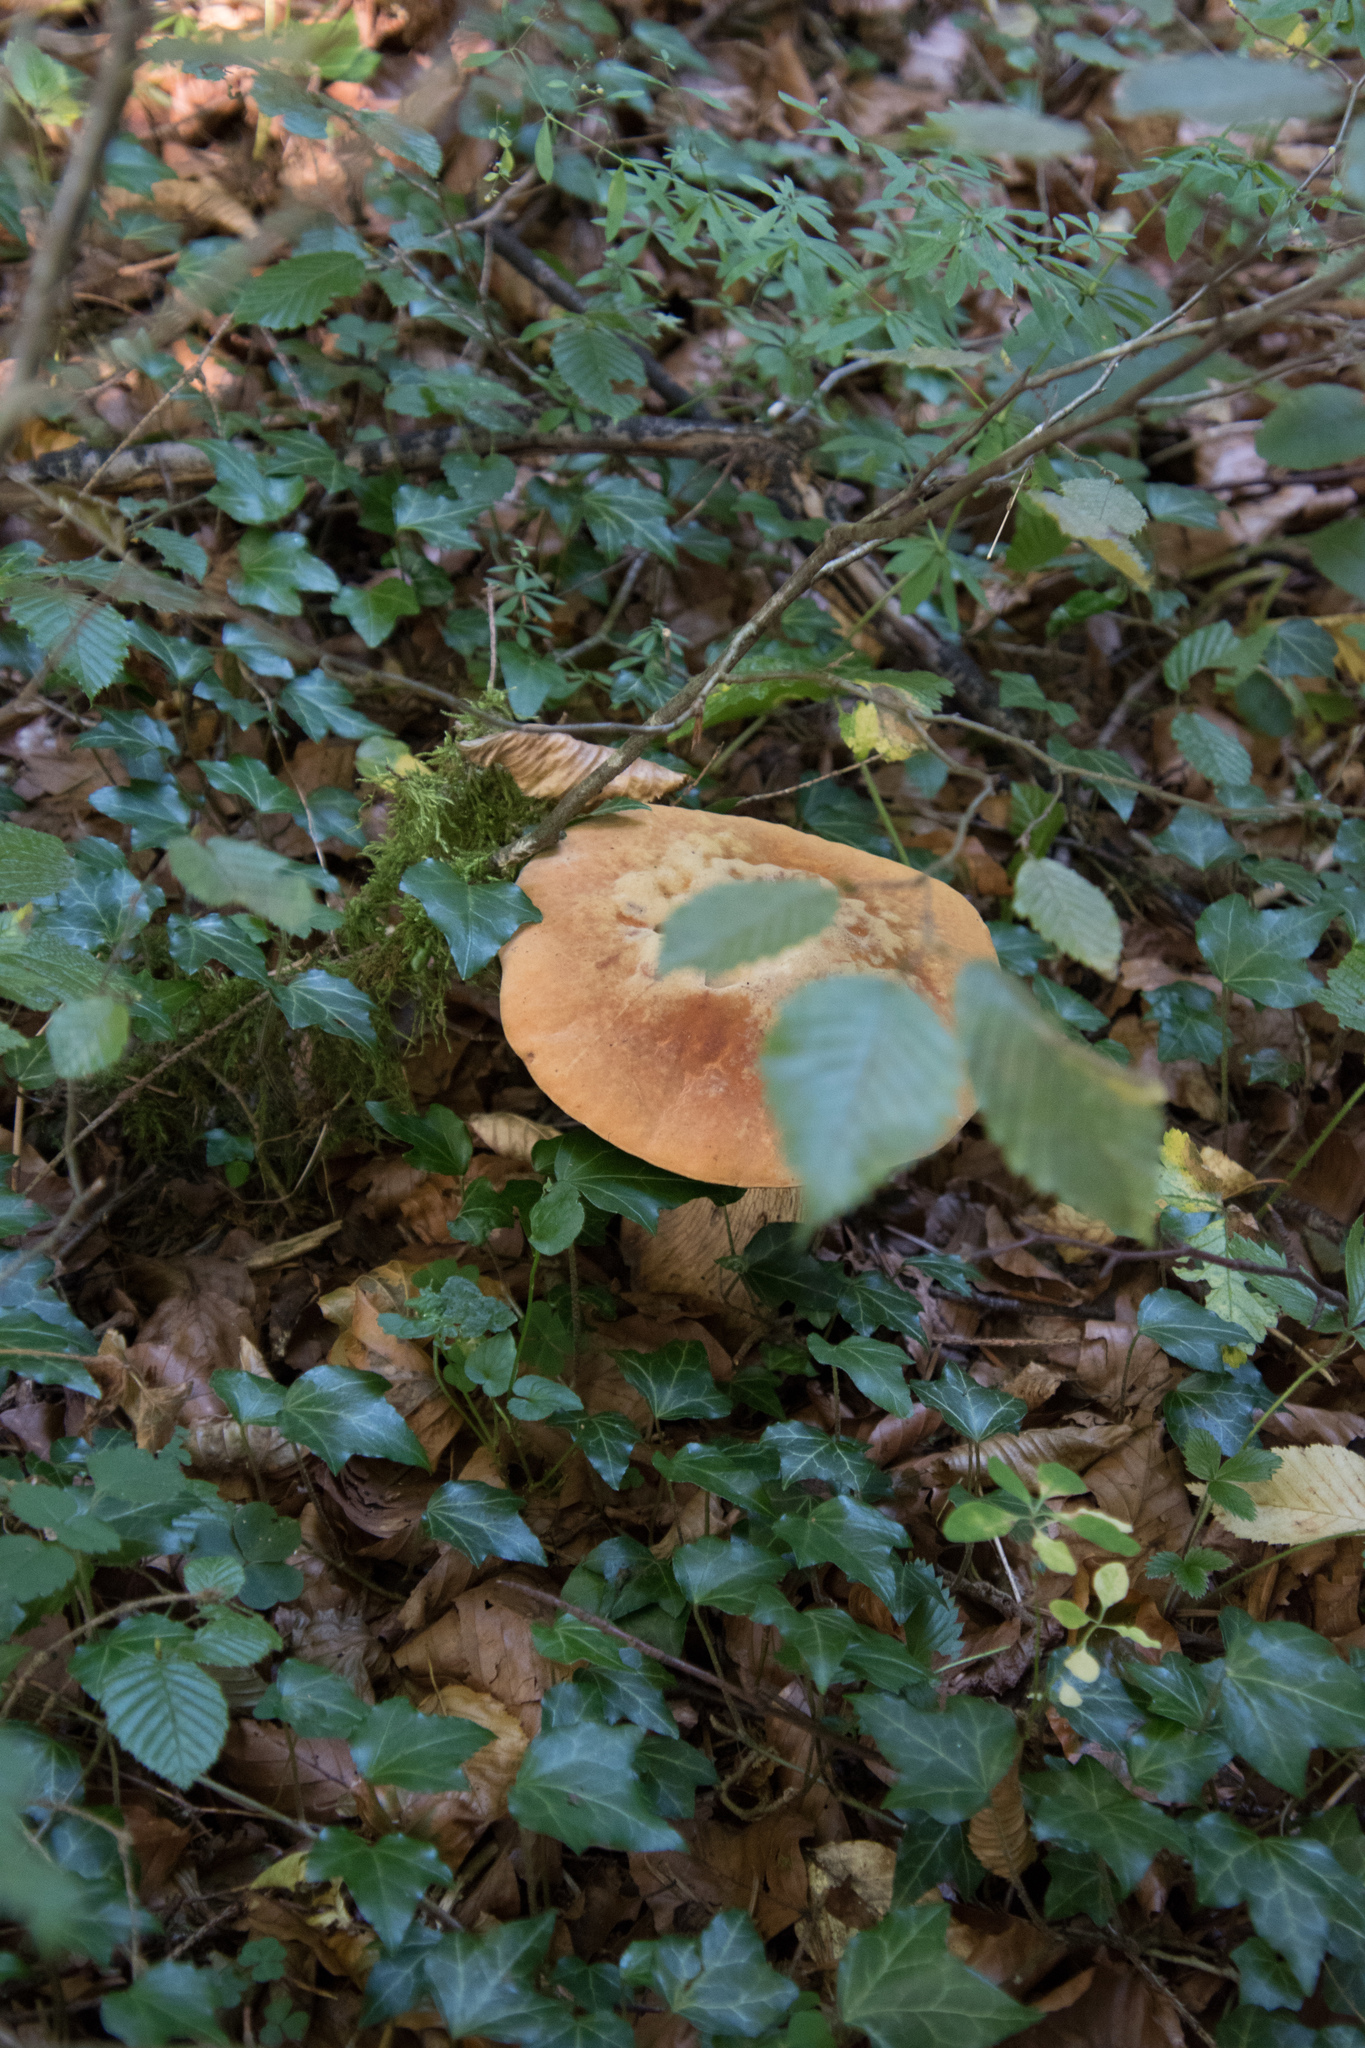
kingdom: Fungi
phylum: Basidiomycota
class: Agaricomycetes
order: Boletales
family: Boletaceae
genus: Boletus
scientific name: Boletus edulis
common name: Cep
